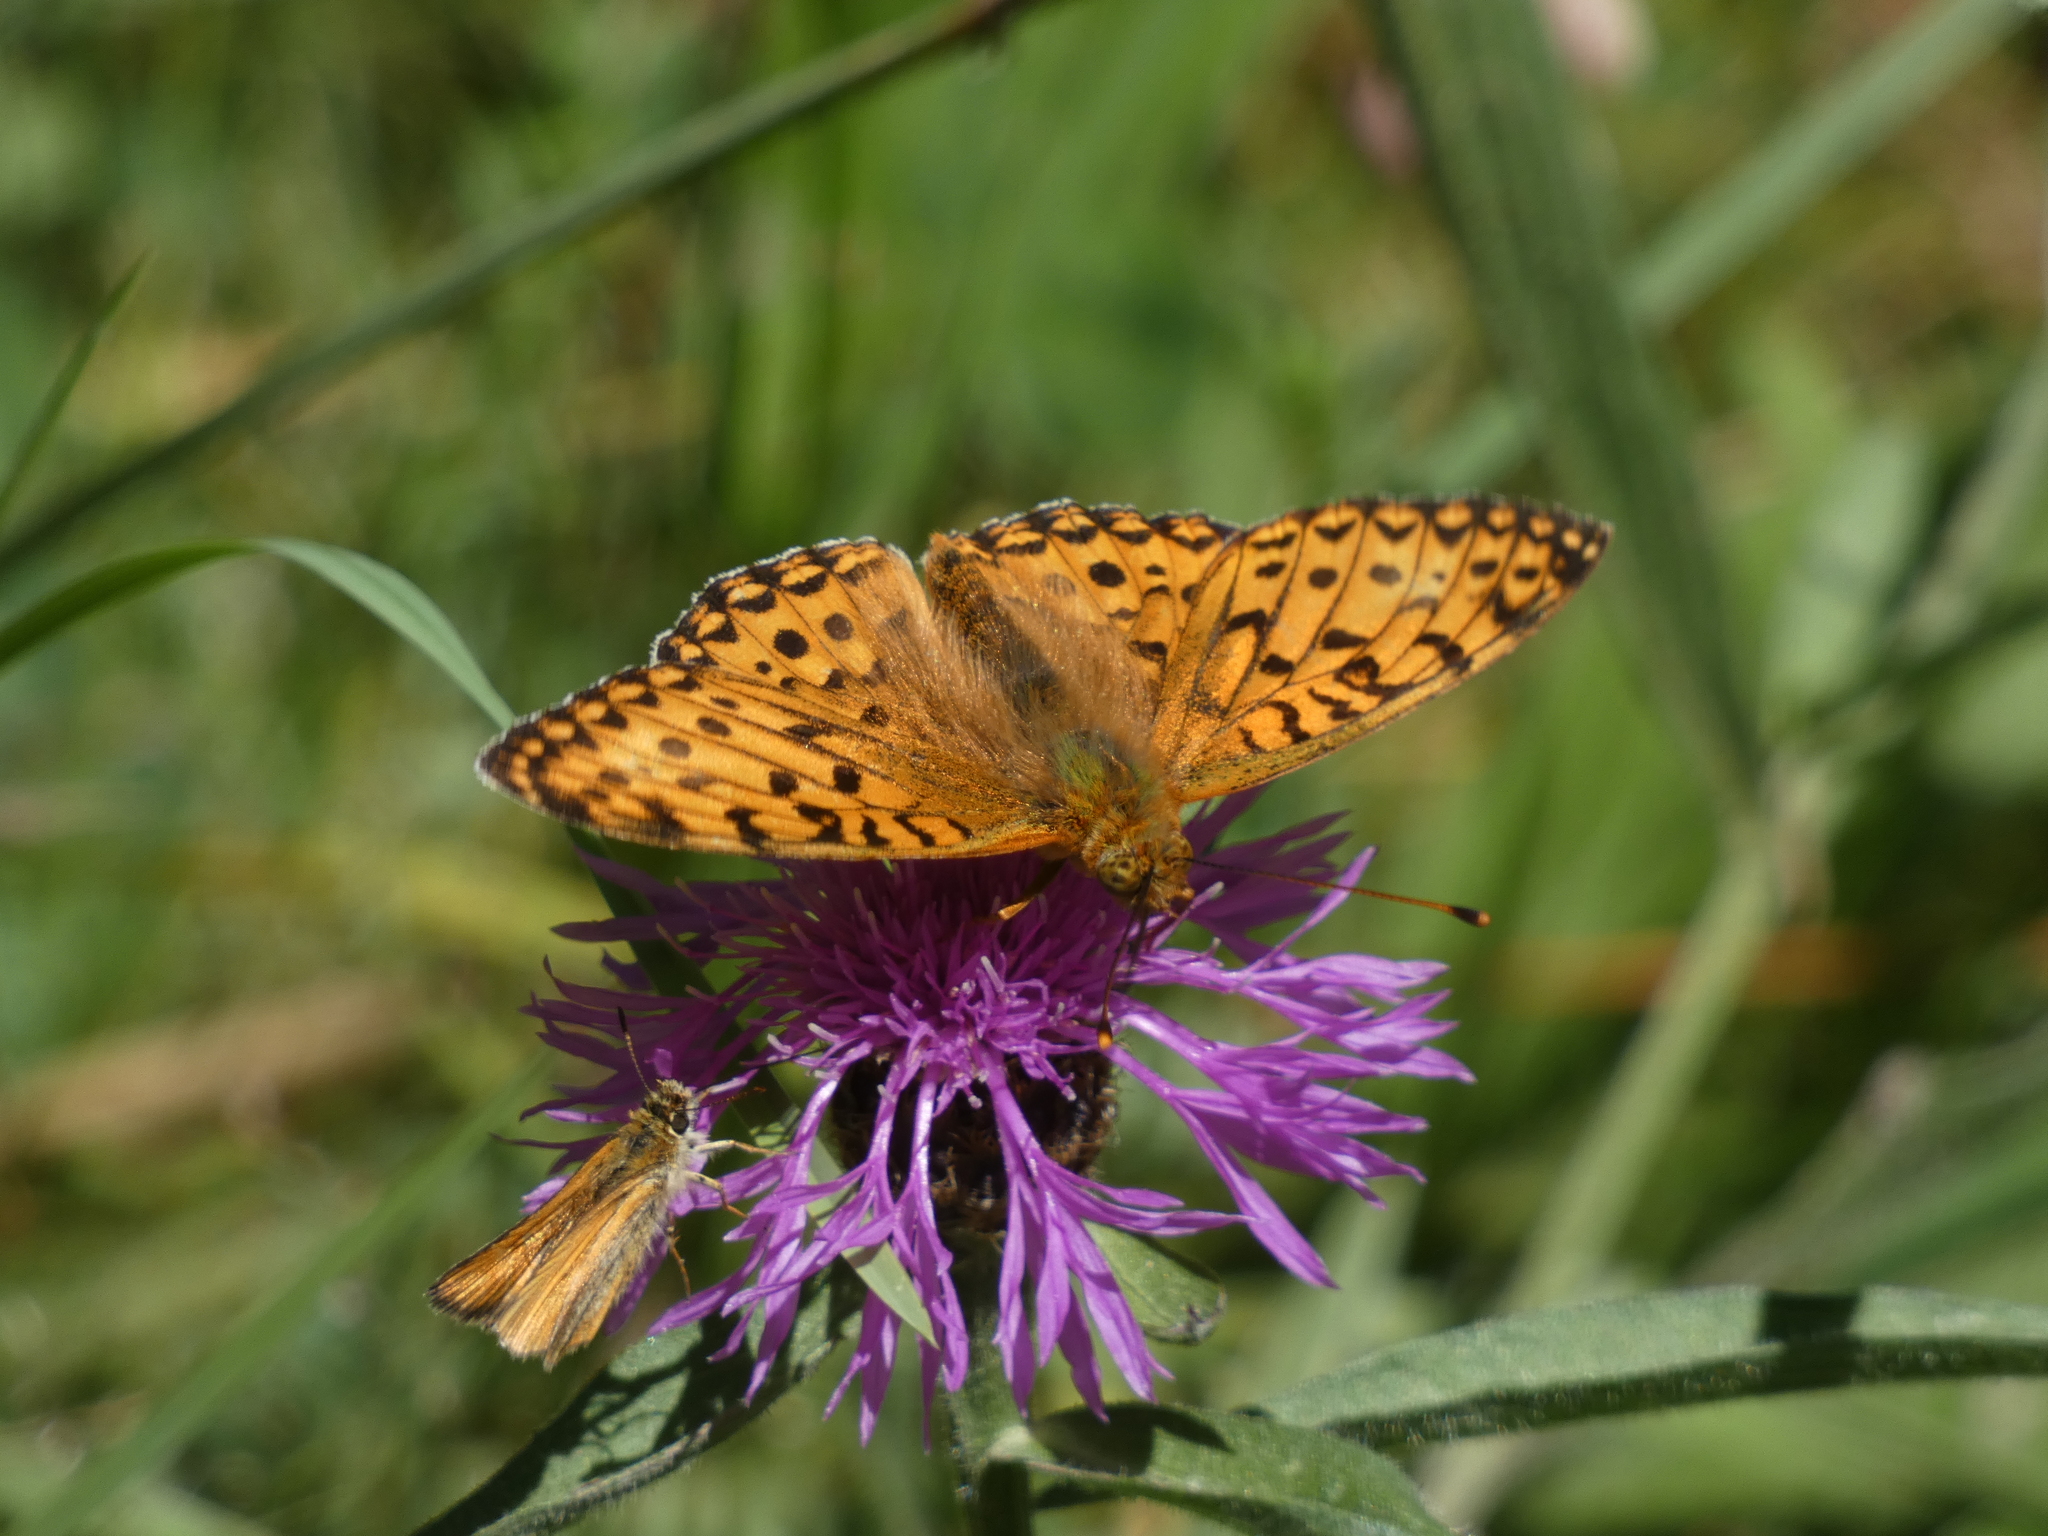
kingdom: Animalia
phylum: Arthropoda
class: Insecta
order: Lepidoptera
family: Nymphalidae
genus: Speyeria
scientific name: Speyeria aglaja
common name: Dark green fritillary
